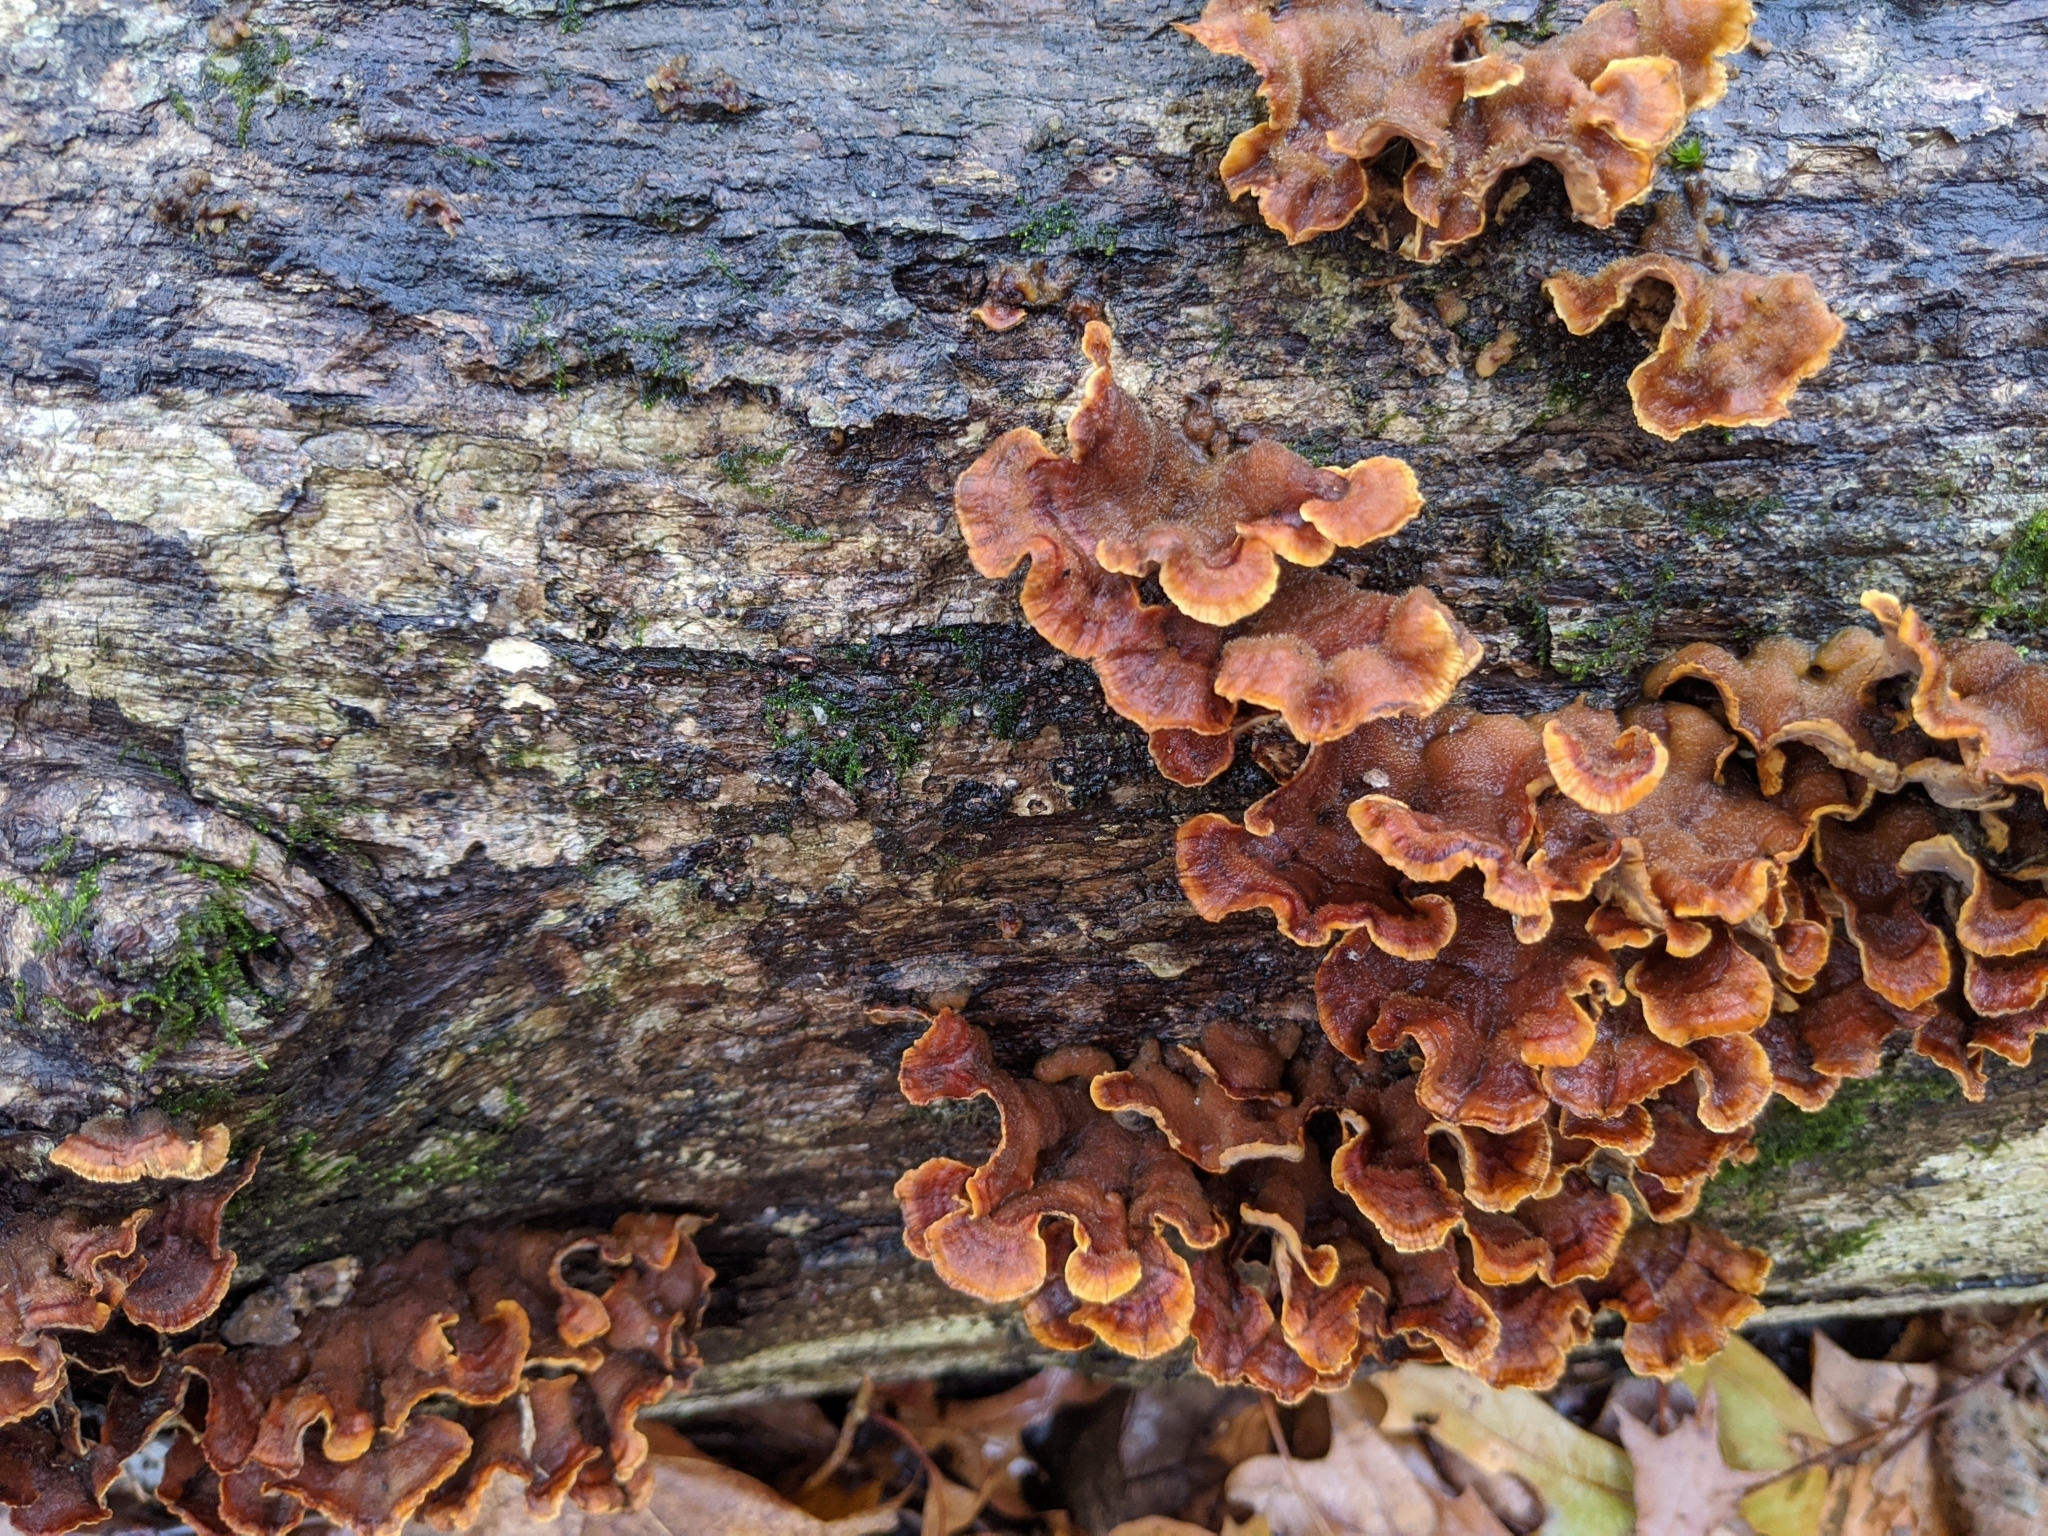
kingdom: Fungi
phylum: Basidiomycota
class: Agaricomycetes
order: Russulales
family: Stereaceae
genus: Stereum
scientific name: Stereum complicatum
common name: Crowded parchment
